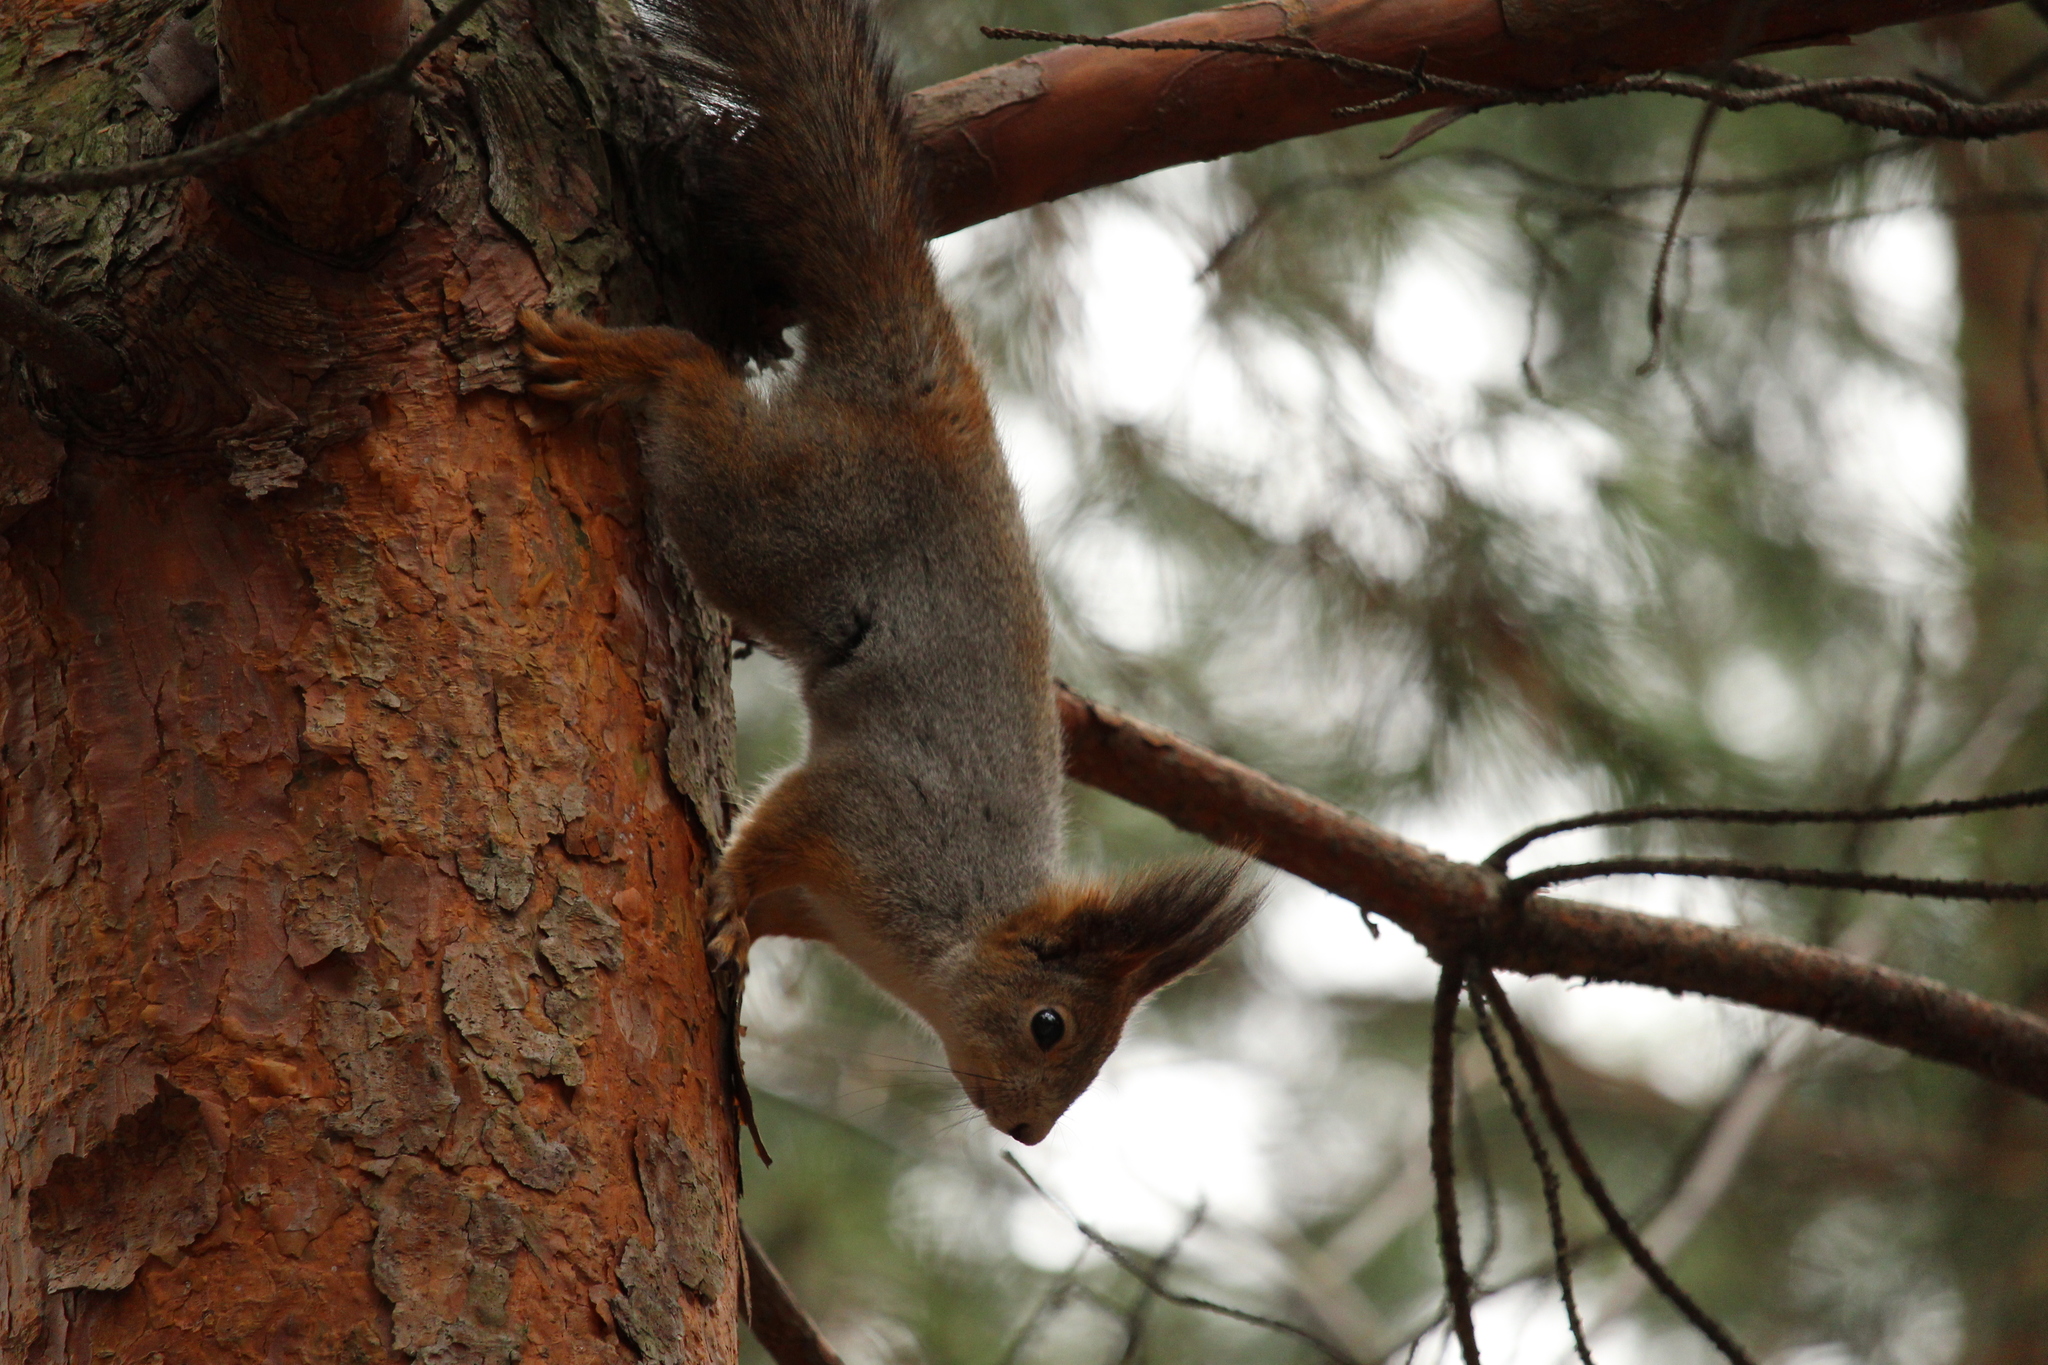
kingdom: Animalia
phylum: Chordata
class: Mammalia
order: Rodentia
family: Sciuridae
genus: Sciurus
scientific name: Sciurus vulgaris
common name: Eurasian red squirrel
